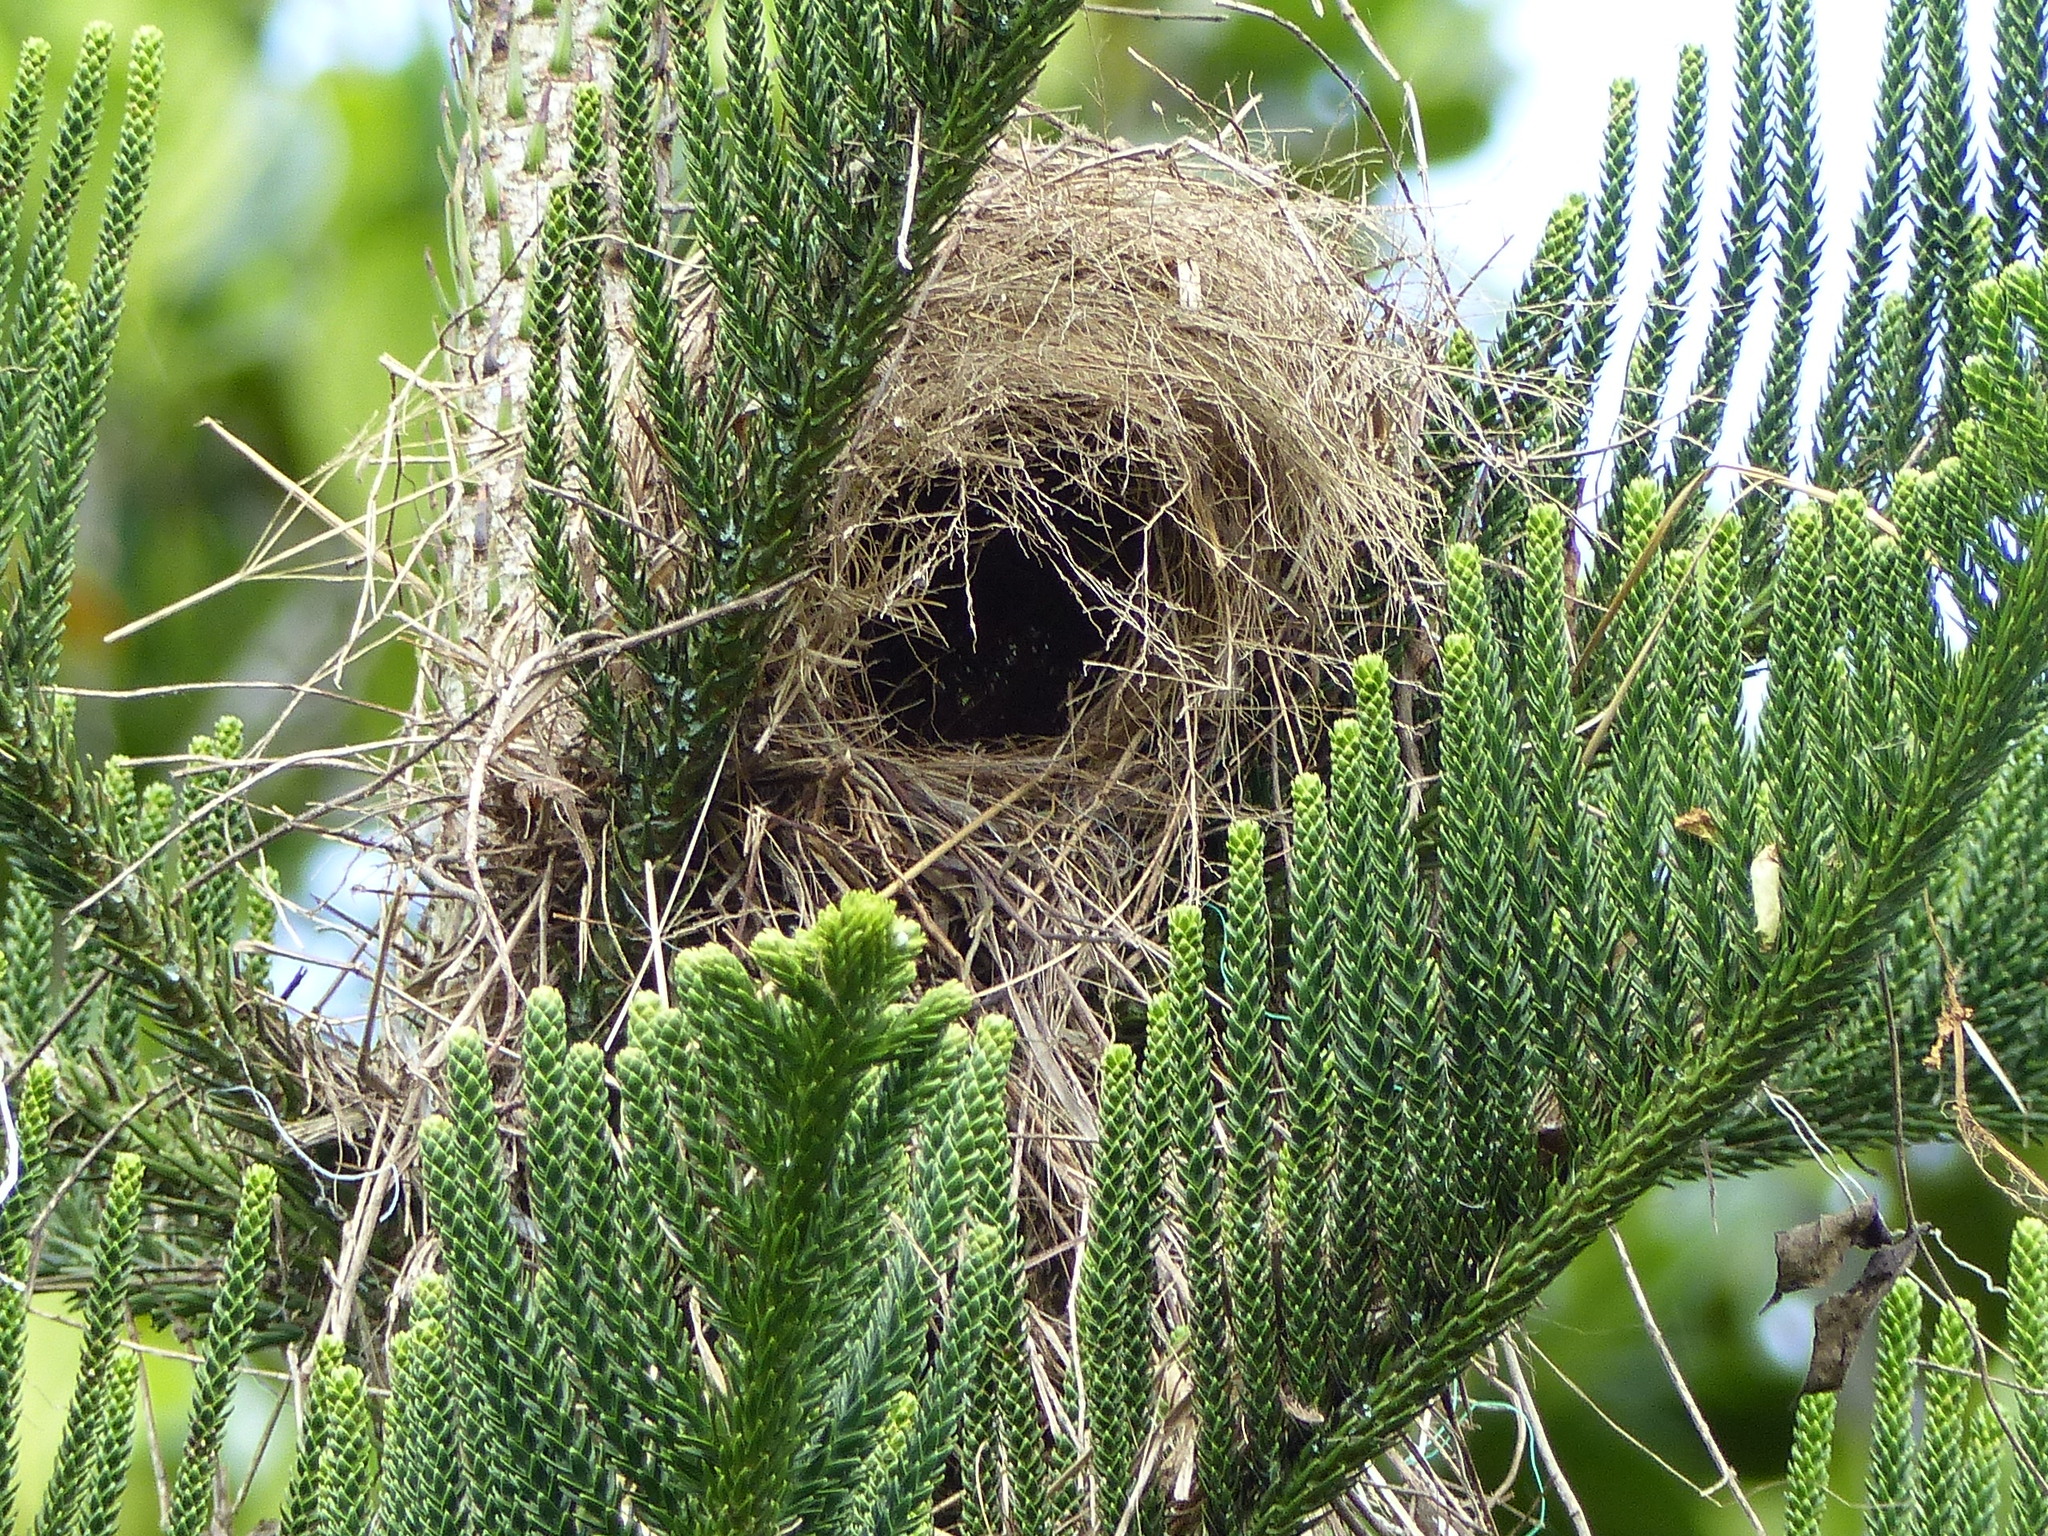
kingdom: Animalia
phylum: Chordata
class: Aves
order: Passeriformes
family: Tyrannidae
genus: Myiozetetes
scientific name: Myiozetetes similis
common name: Social flycatcher
